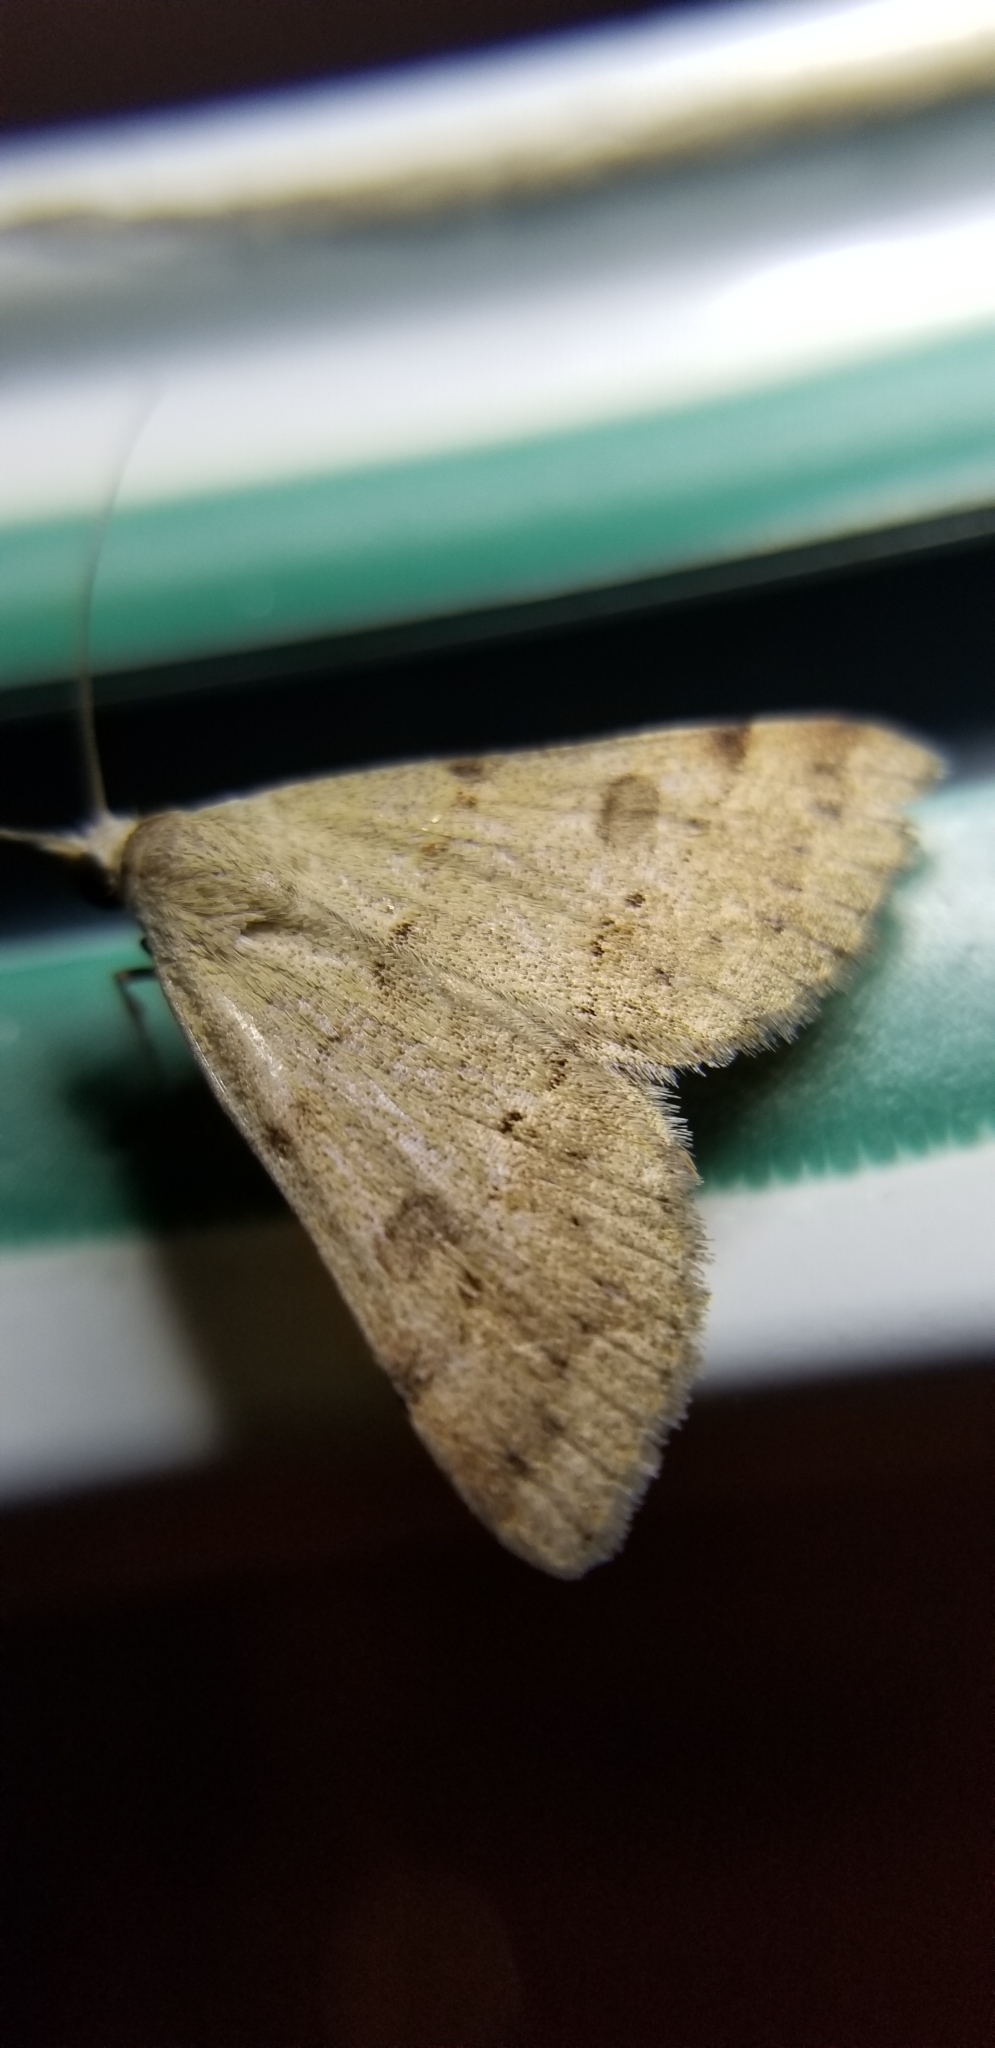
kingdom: Animalia
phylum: Arthropoda
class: Insecta
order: Lepidoptera
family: Erebidae
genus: Hemeroplanis
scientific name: Hemeroplanis historialis
